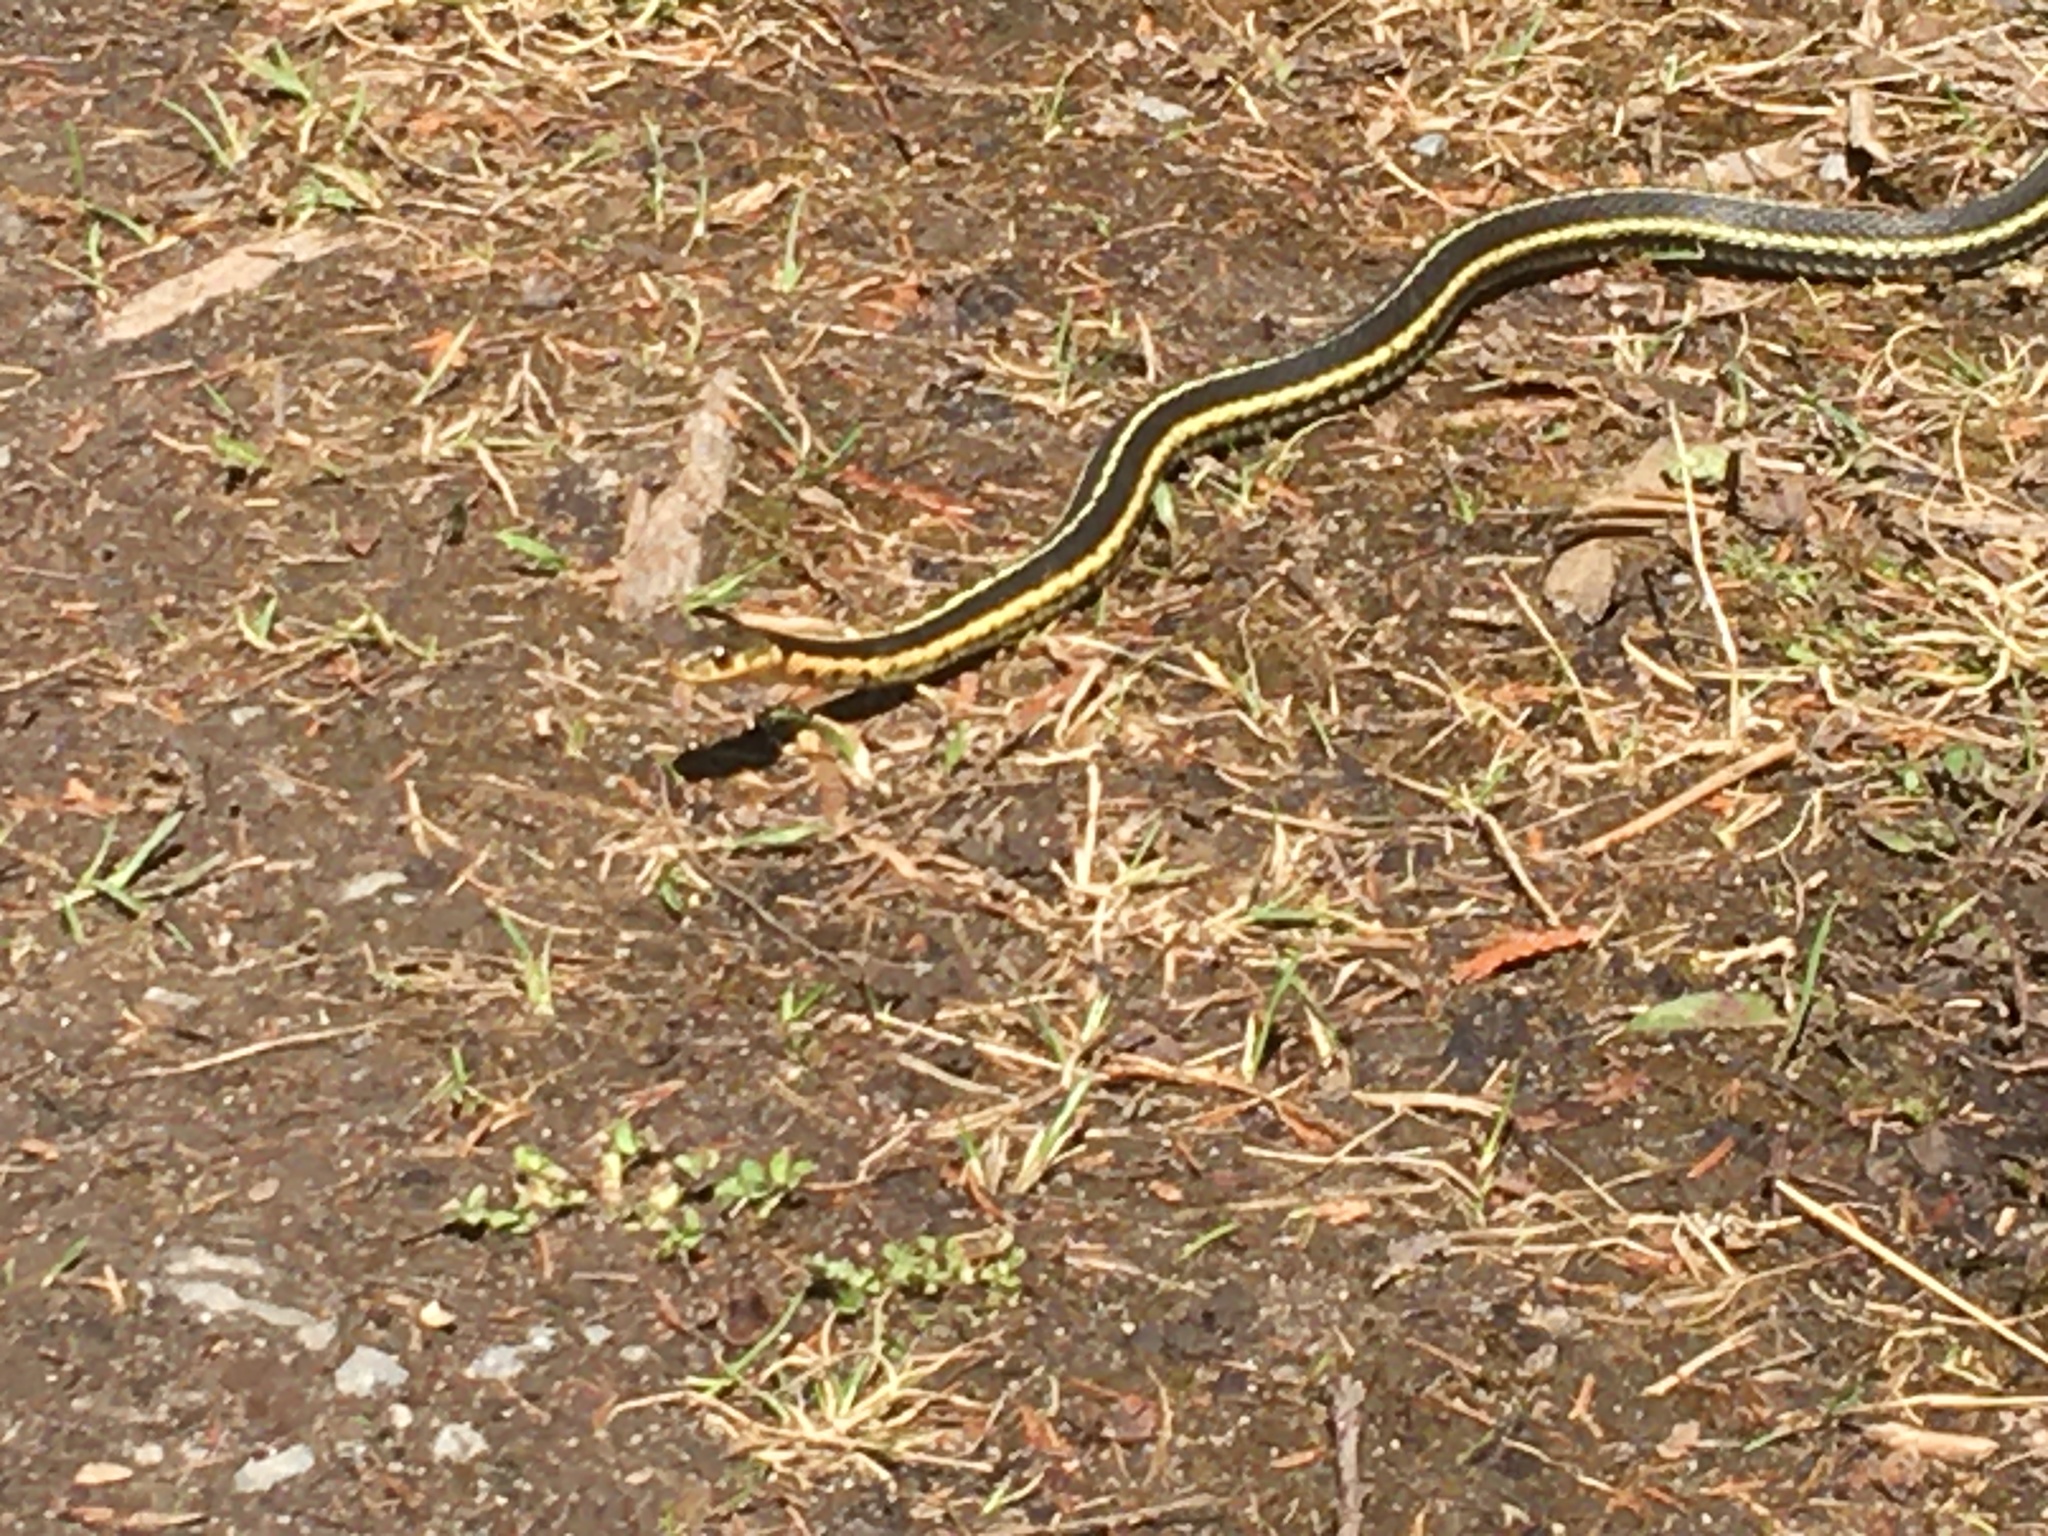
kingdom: Animalia
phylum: Chordata
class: Squamata
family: Colubridae
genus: Thamnophis
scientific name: Thamnophis sirtalis
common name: Common garter snake
